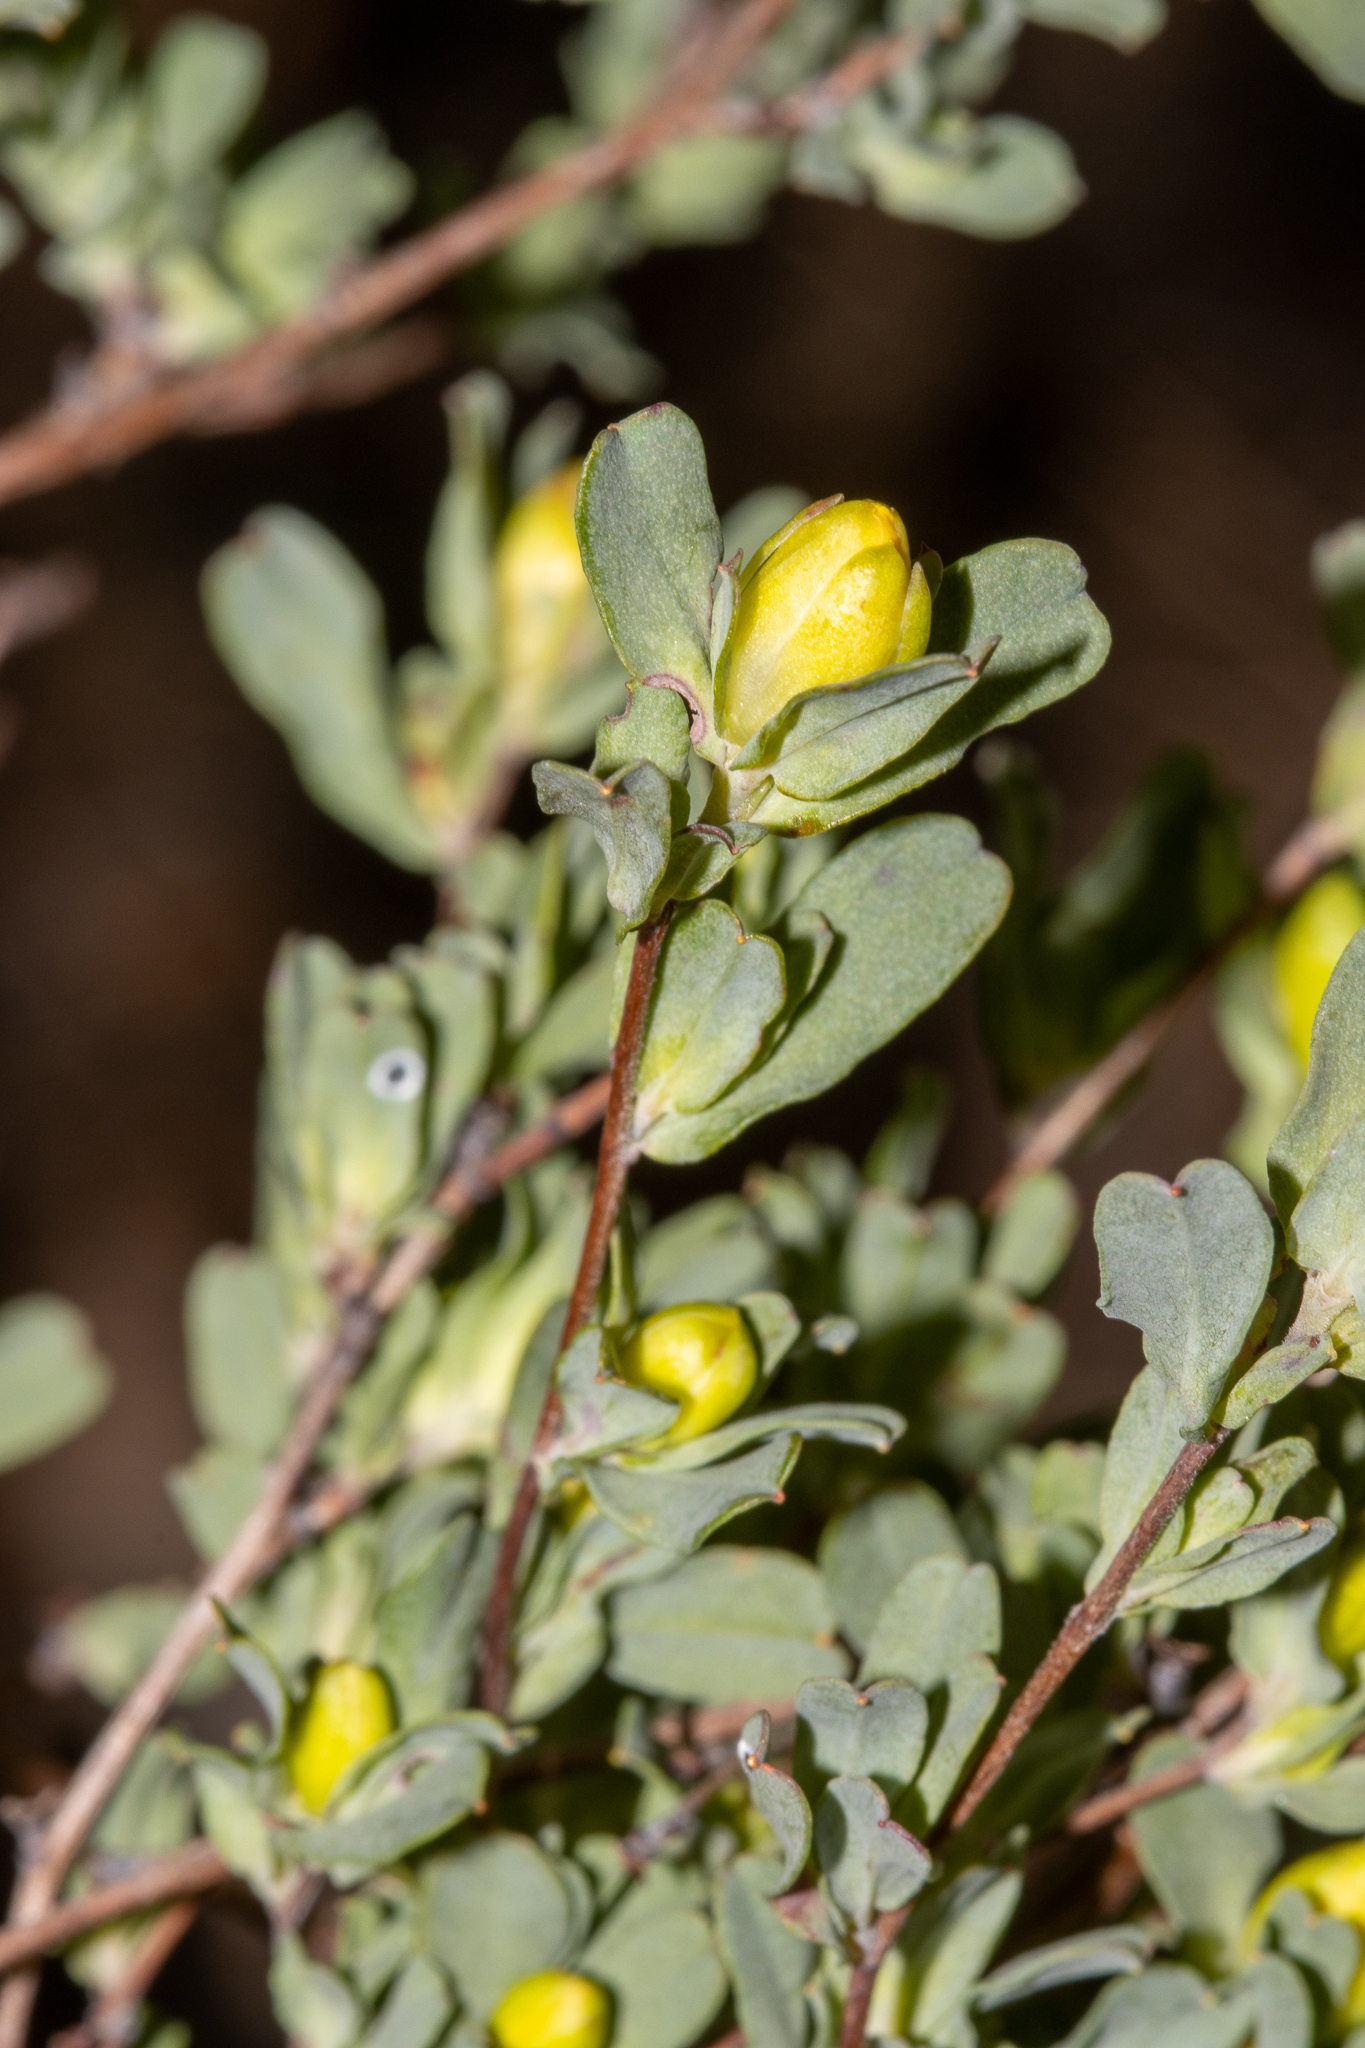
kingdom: Plantae
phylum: Tracheophyta
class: Magnoliopsida
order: Dilleniales
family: Dilleniaceae
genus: Hibbertia
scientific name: Hibbertia glomerata
